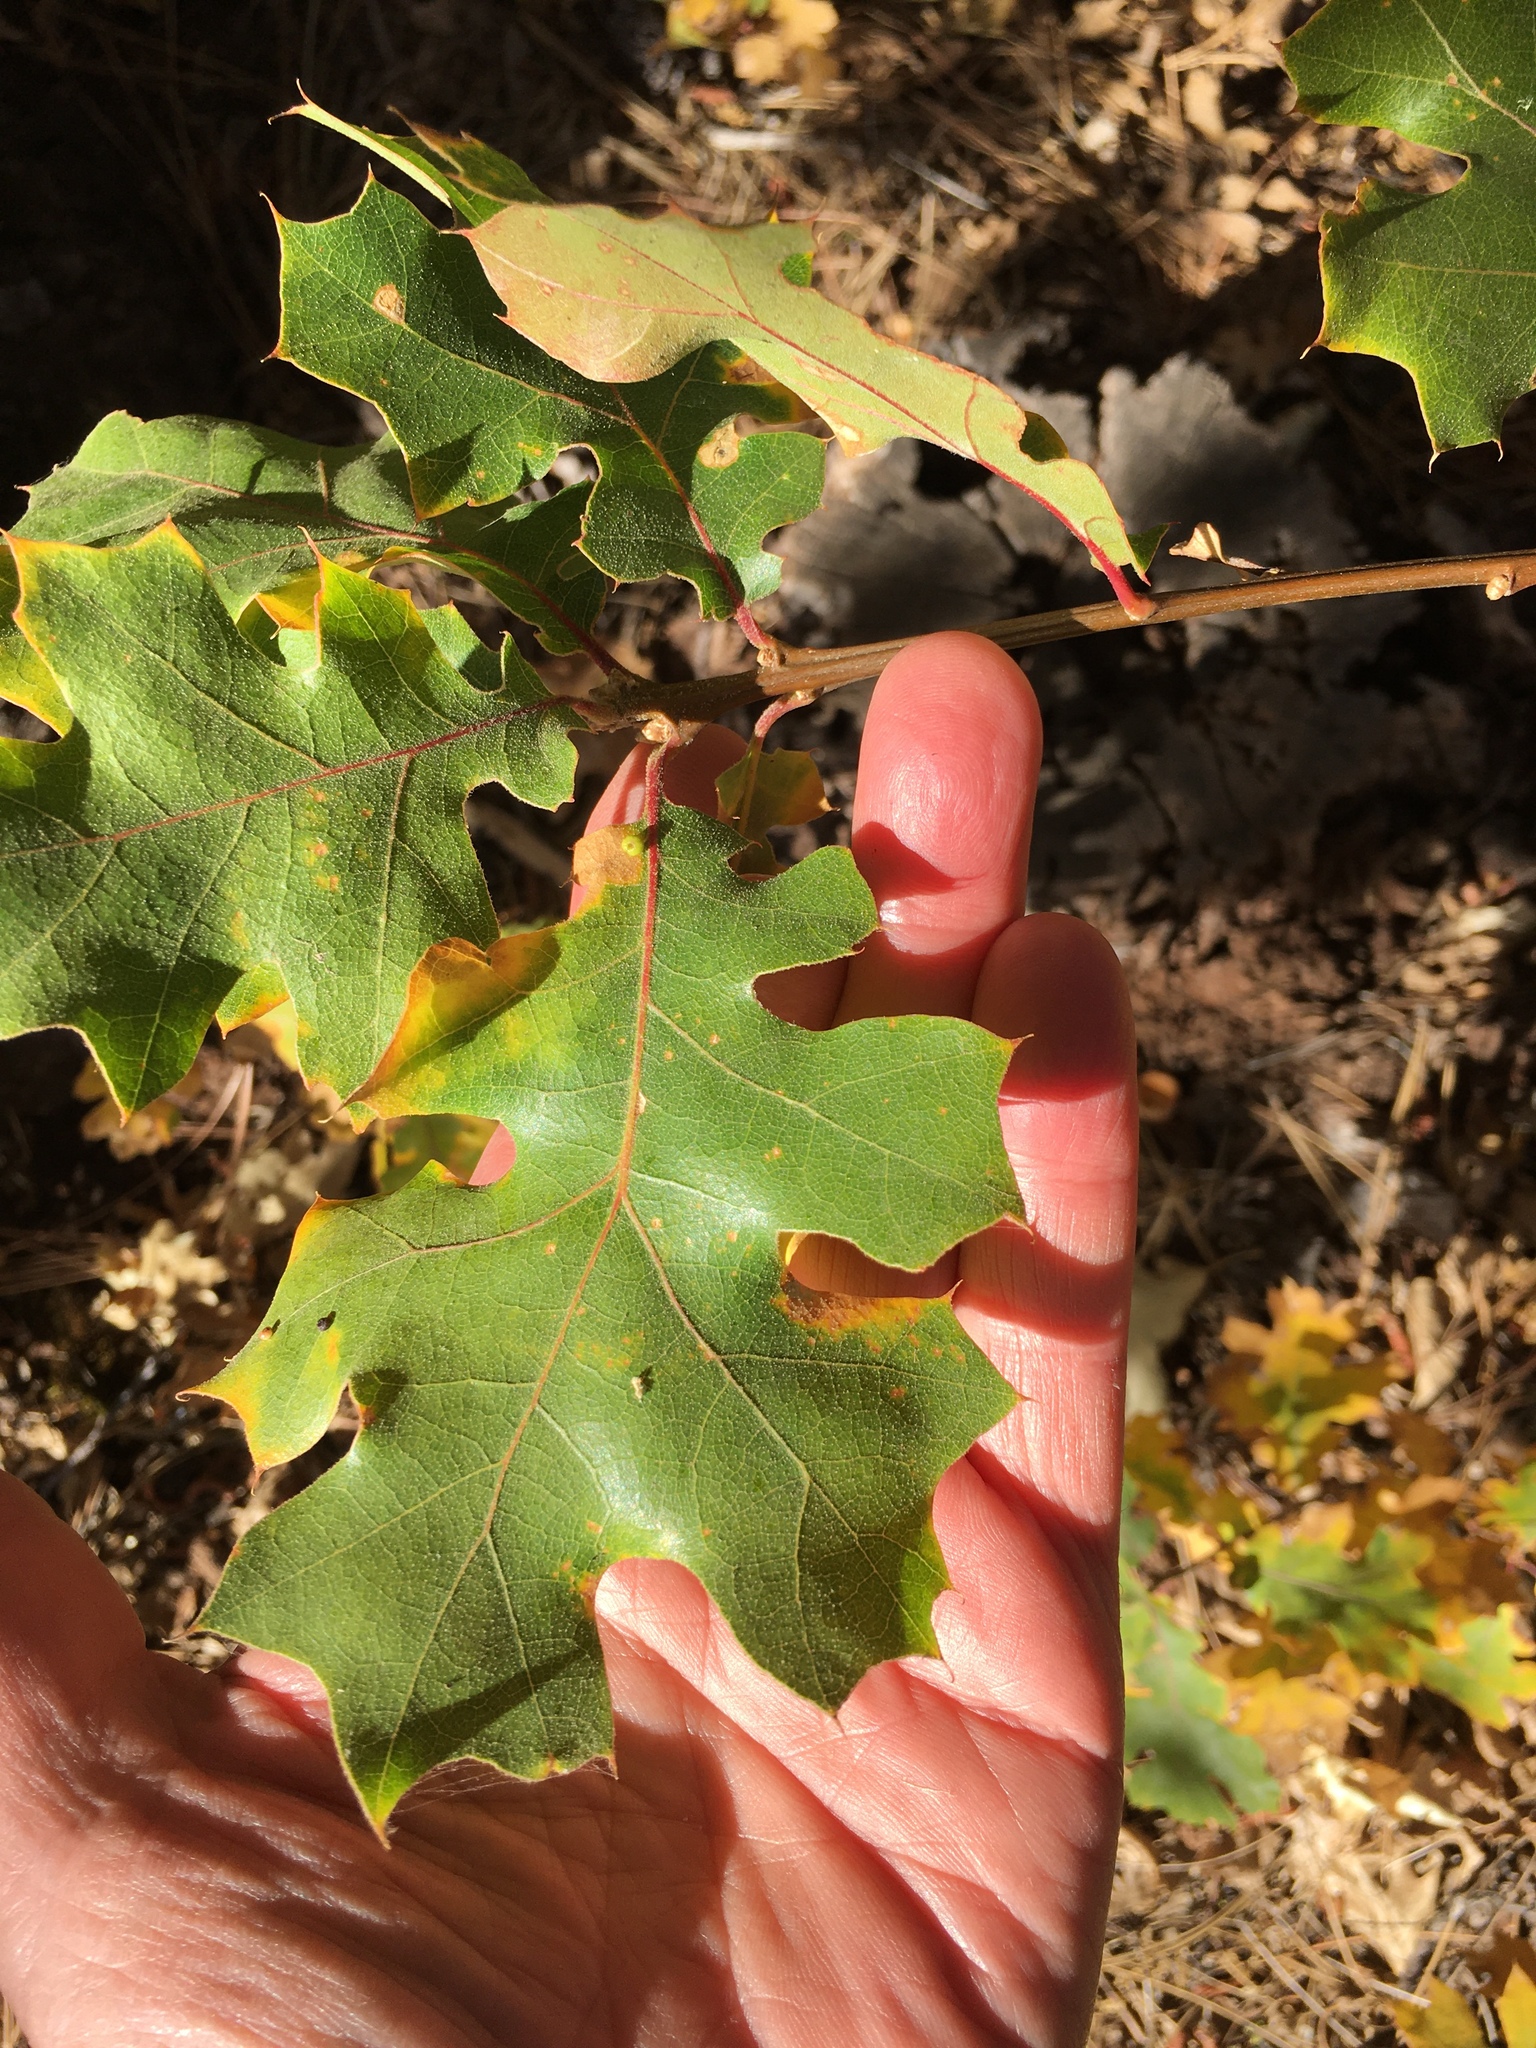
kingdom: Plantae
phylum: Tracheophyta
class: Magnoliopsida
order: Fagales
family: Fagaceae
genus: Quercus
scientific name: Quercus kelloggii
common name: California black oak
